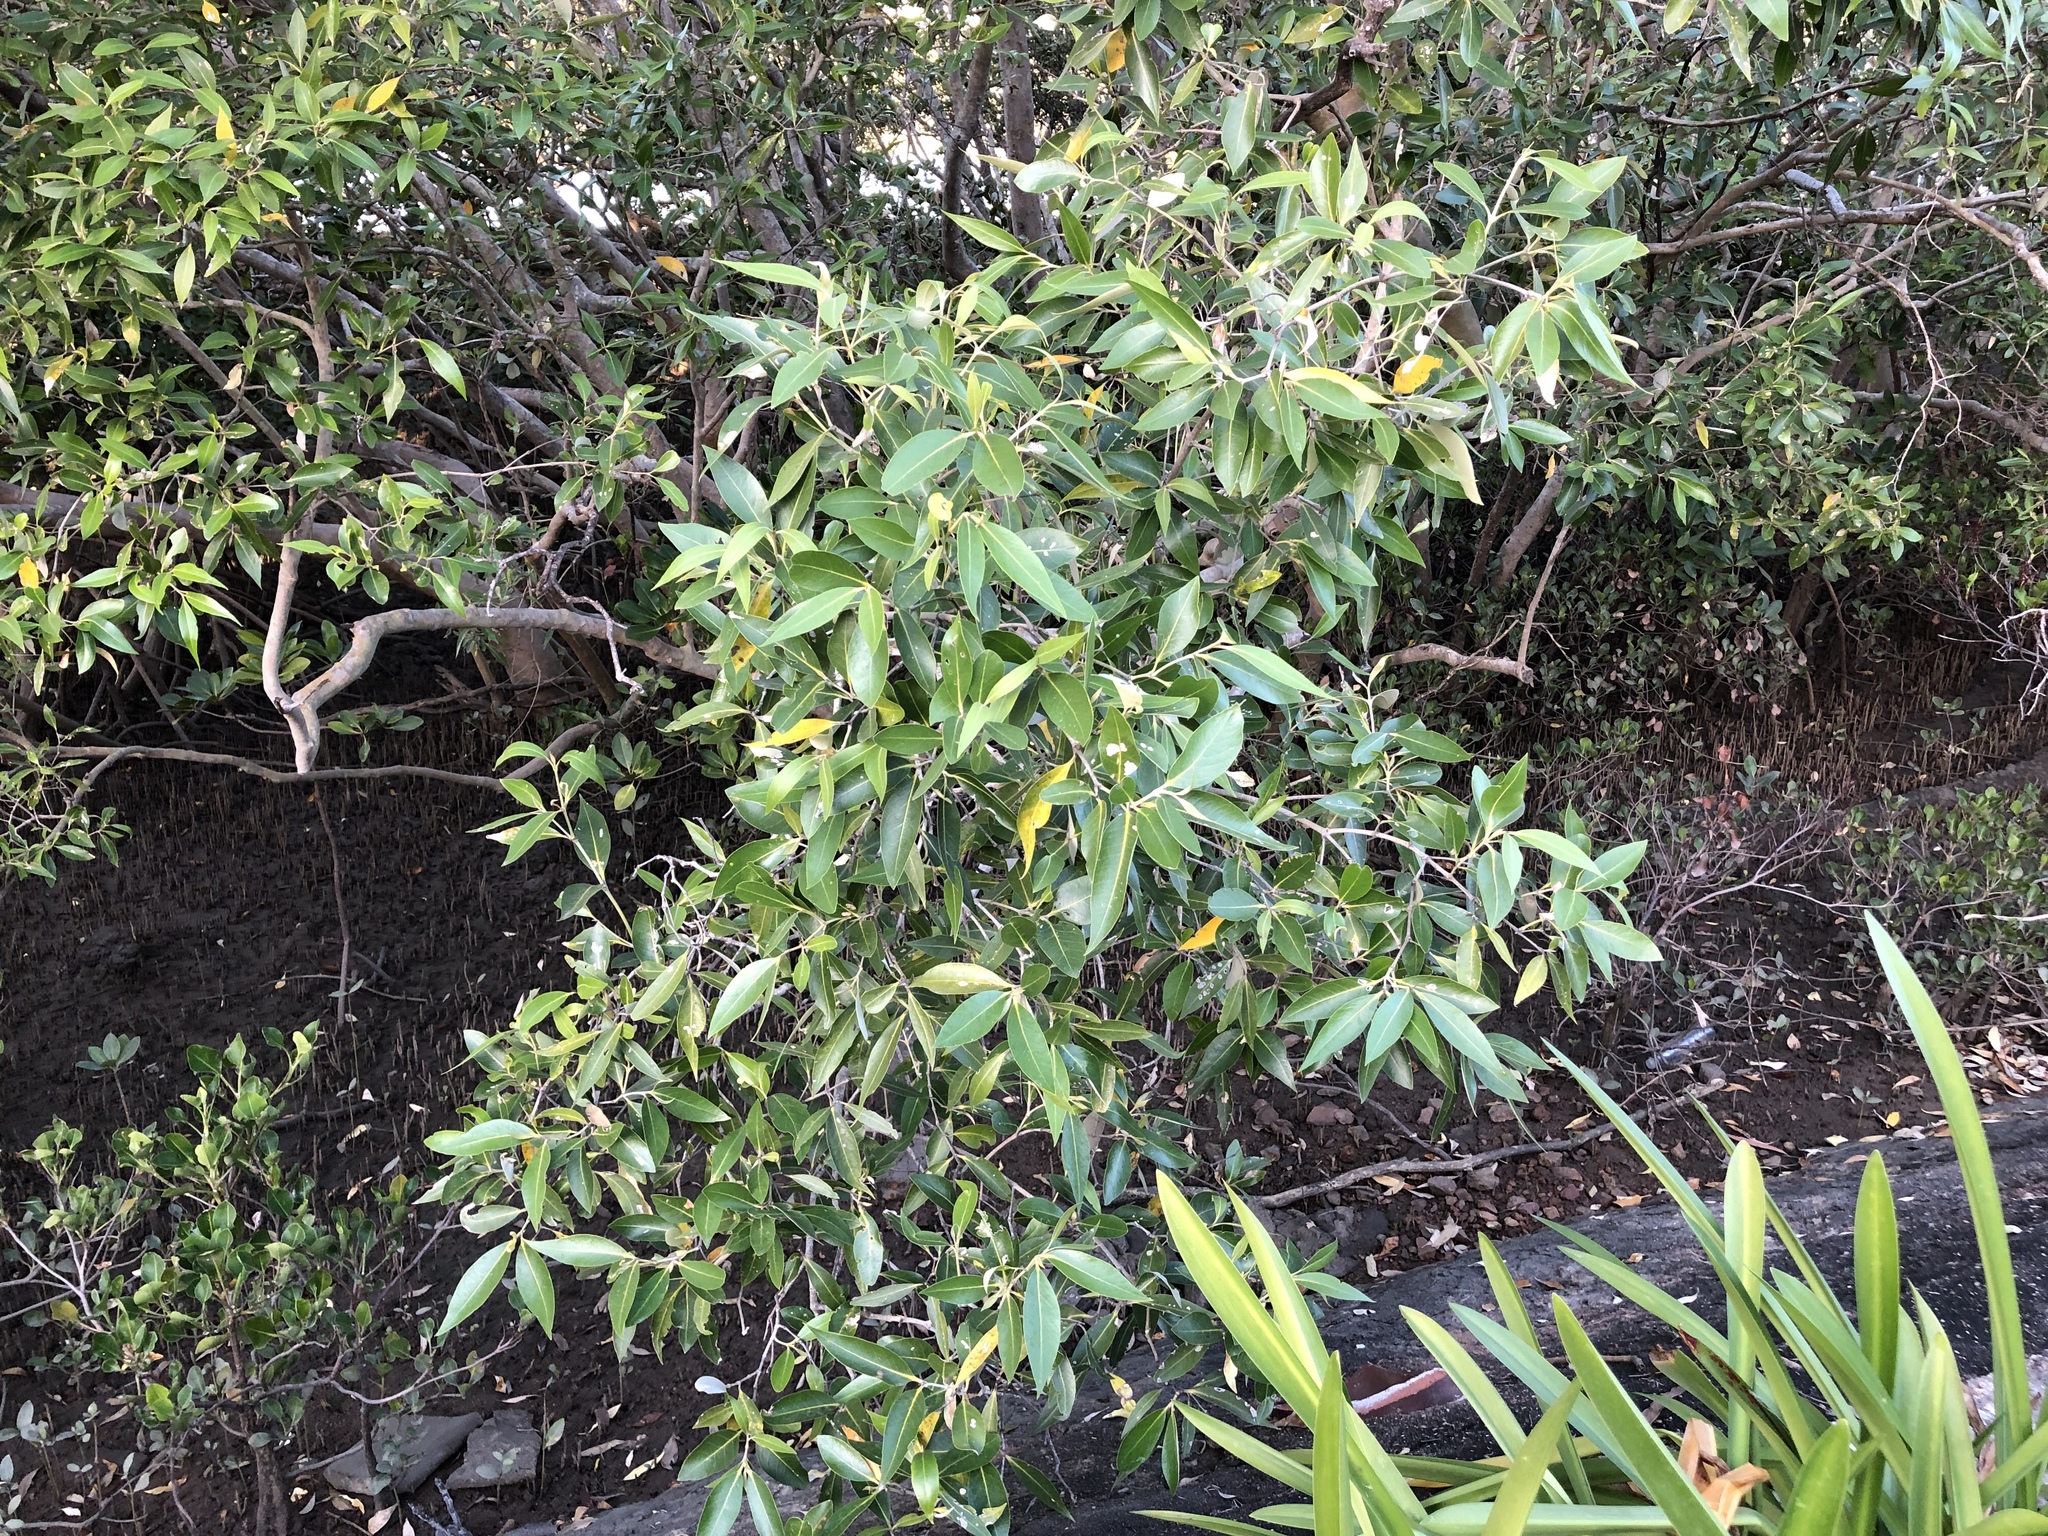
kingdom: Plantae
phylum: Tracheophyta
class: Magnoliopsida
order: Lamiales
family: Acanthaceae
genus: Avicennia
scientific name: Avicennia marina
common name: Gray mangrove
